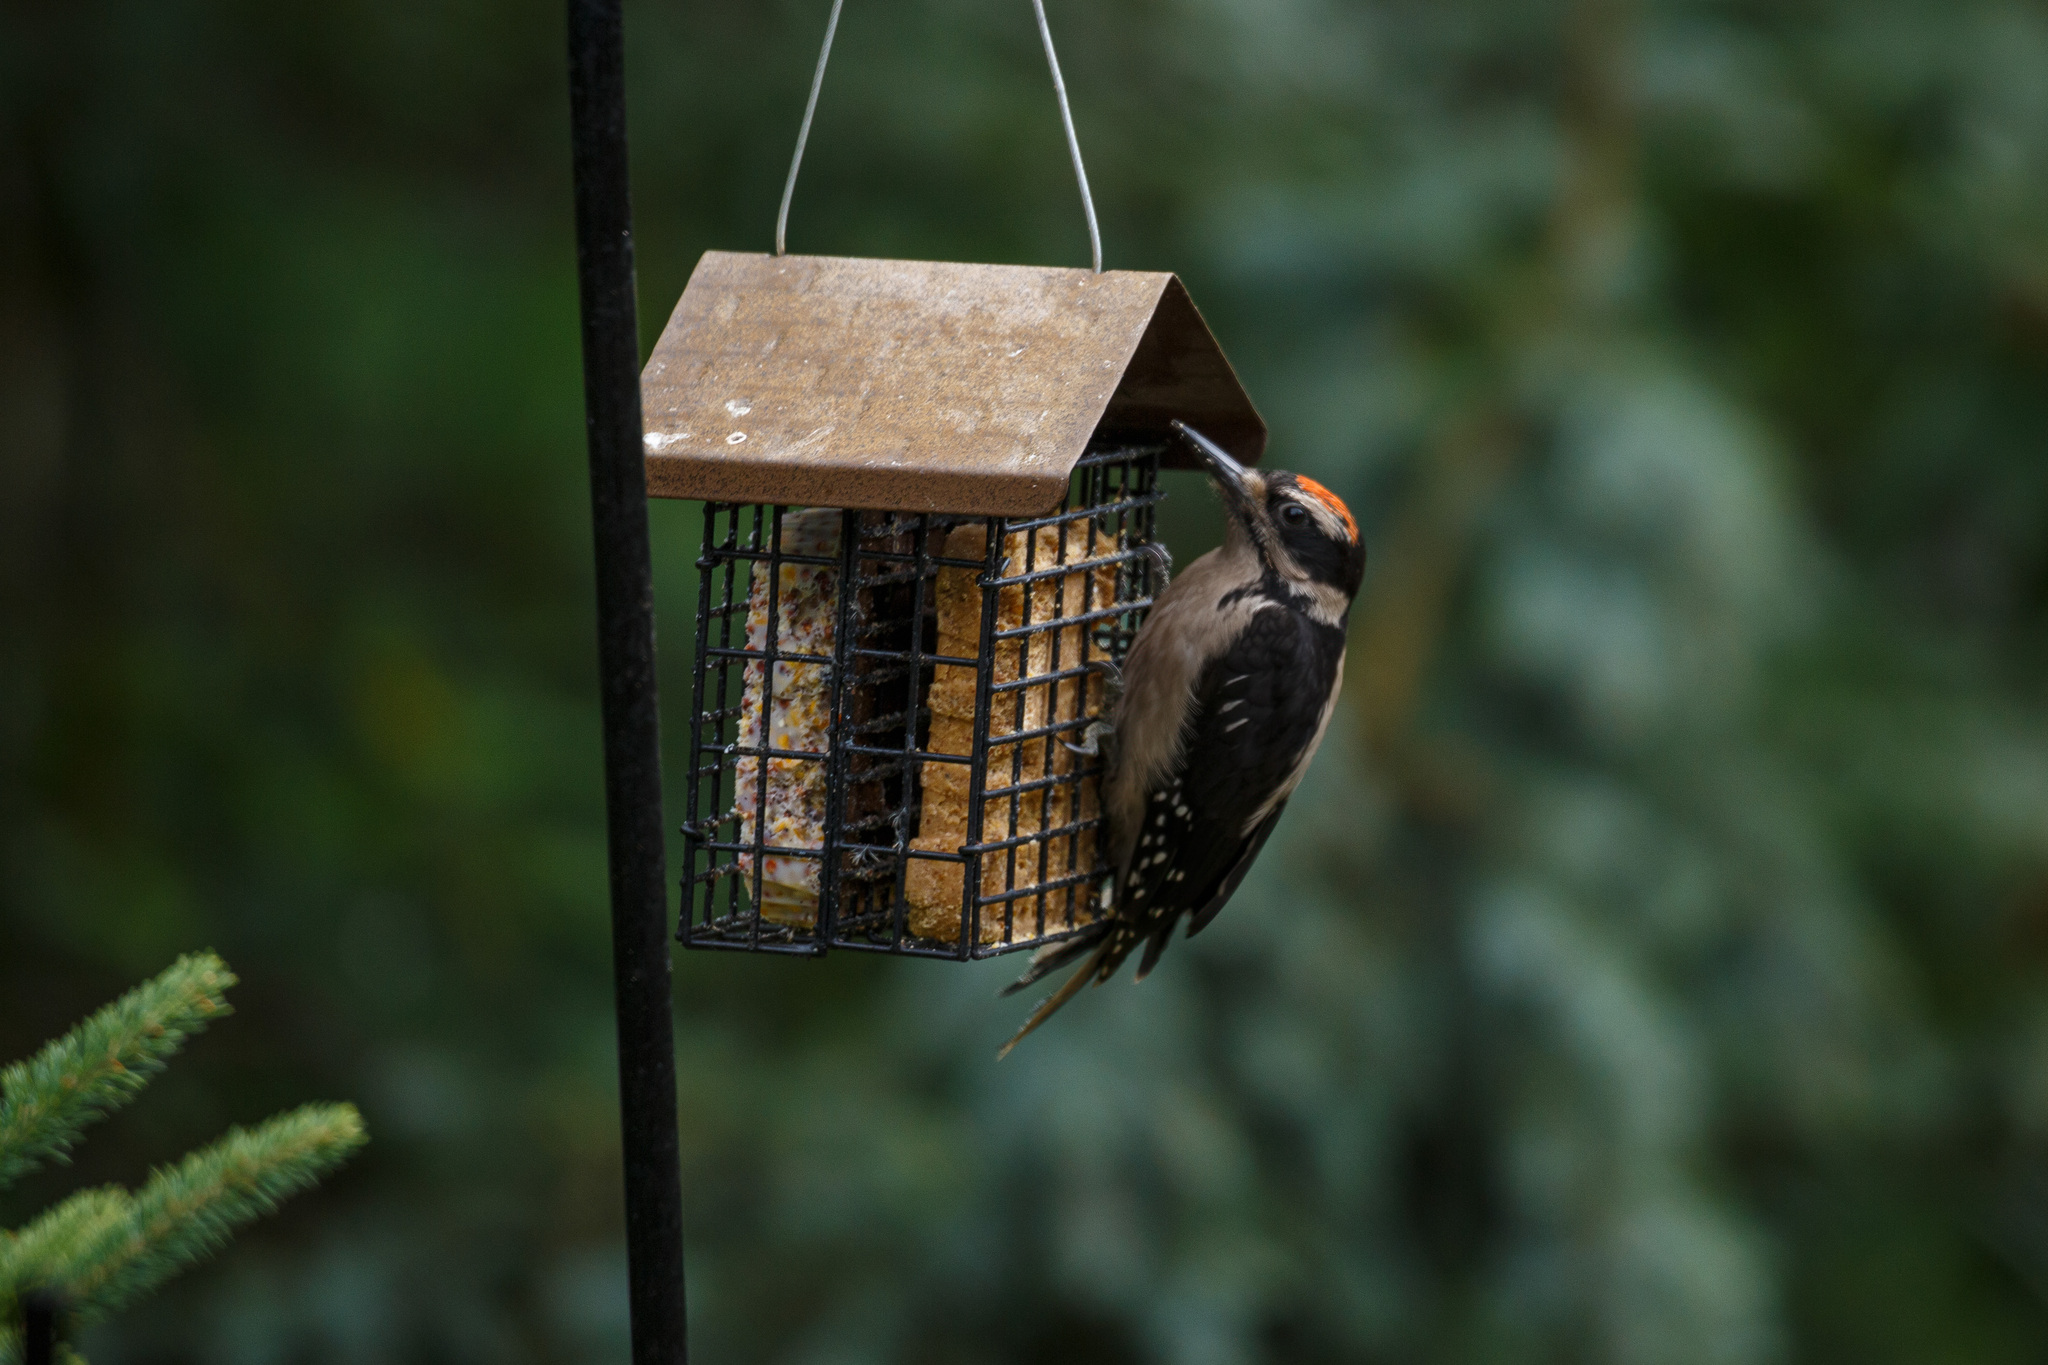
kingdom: Animalia
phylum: Chordata
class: Aves
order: Piciformes
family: Picidae
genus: Leuconotopicus
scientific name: Leuconotopicus villosus
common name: Hairy woodpecker
